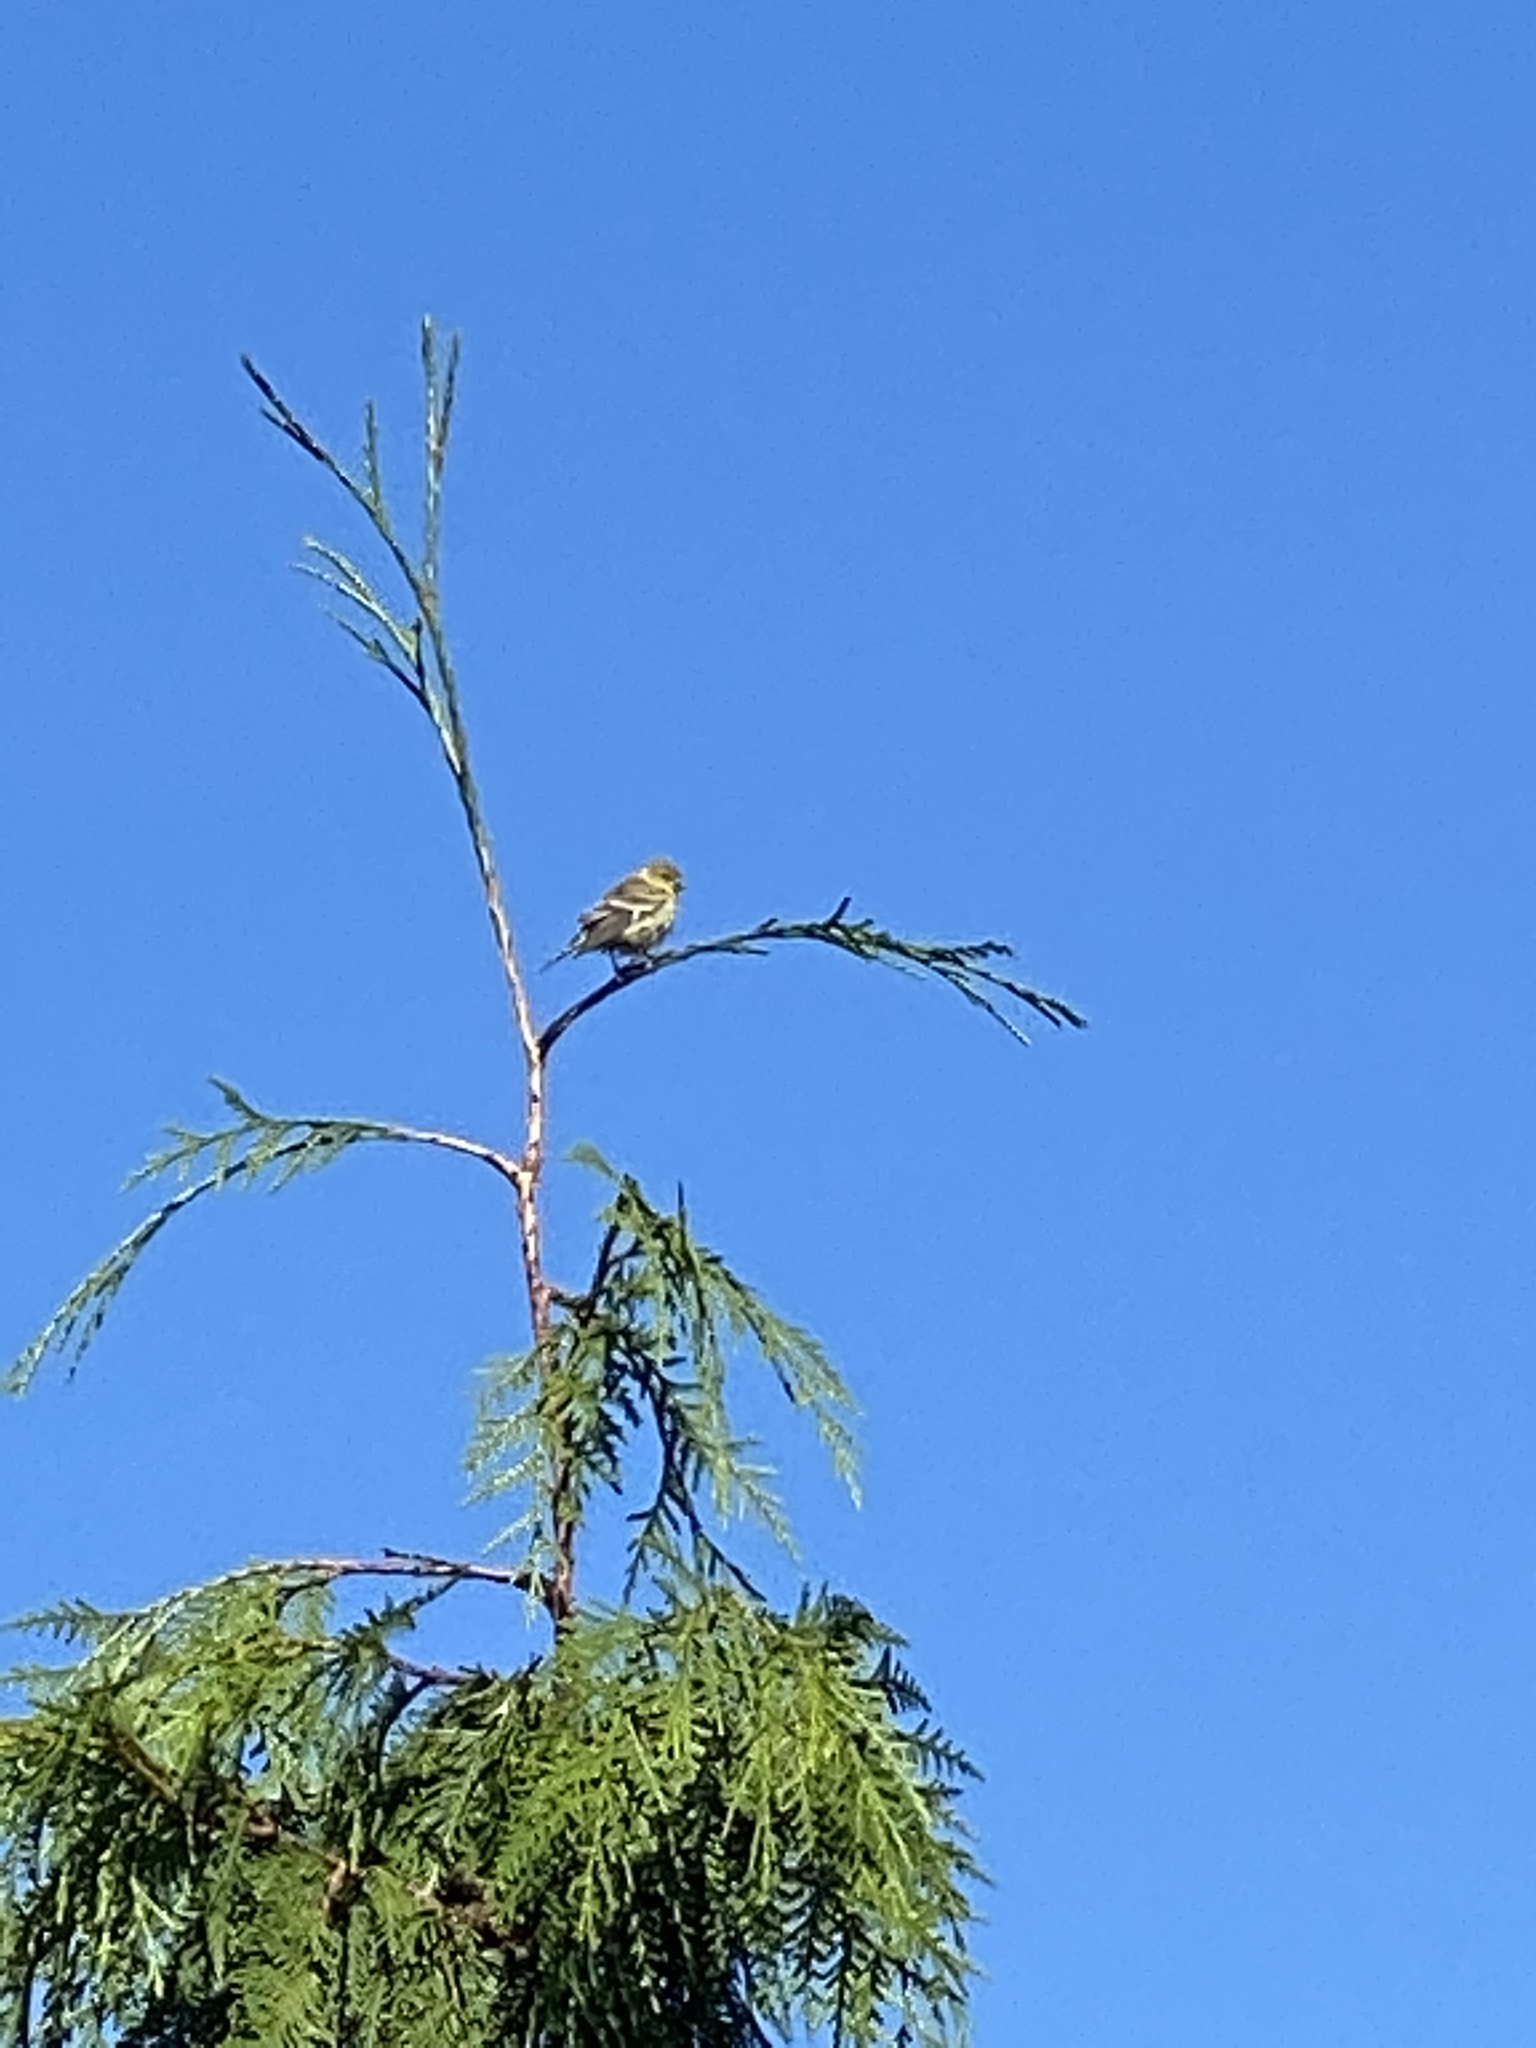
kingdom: Animalia
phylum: Chordata
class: Aves
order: Passeriformes
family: Fringillidae
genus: Spinus
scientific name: Spinus psaltria
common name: Lesser goldfinch
